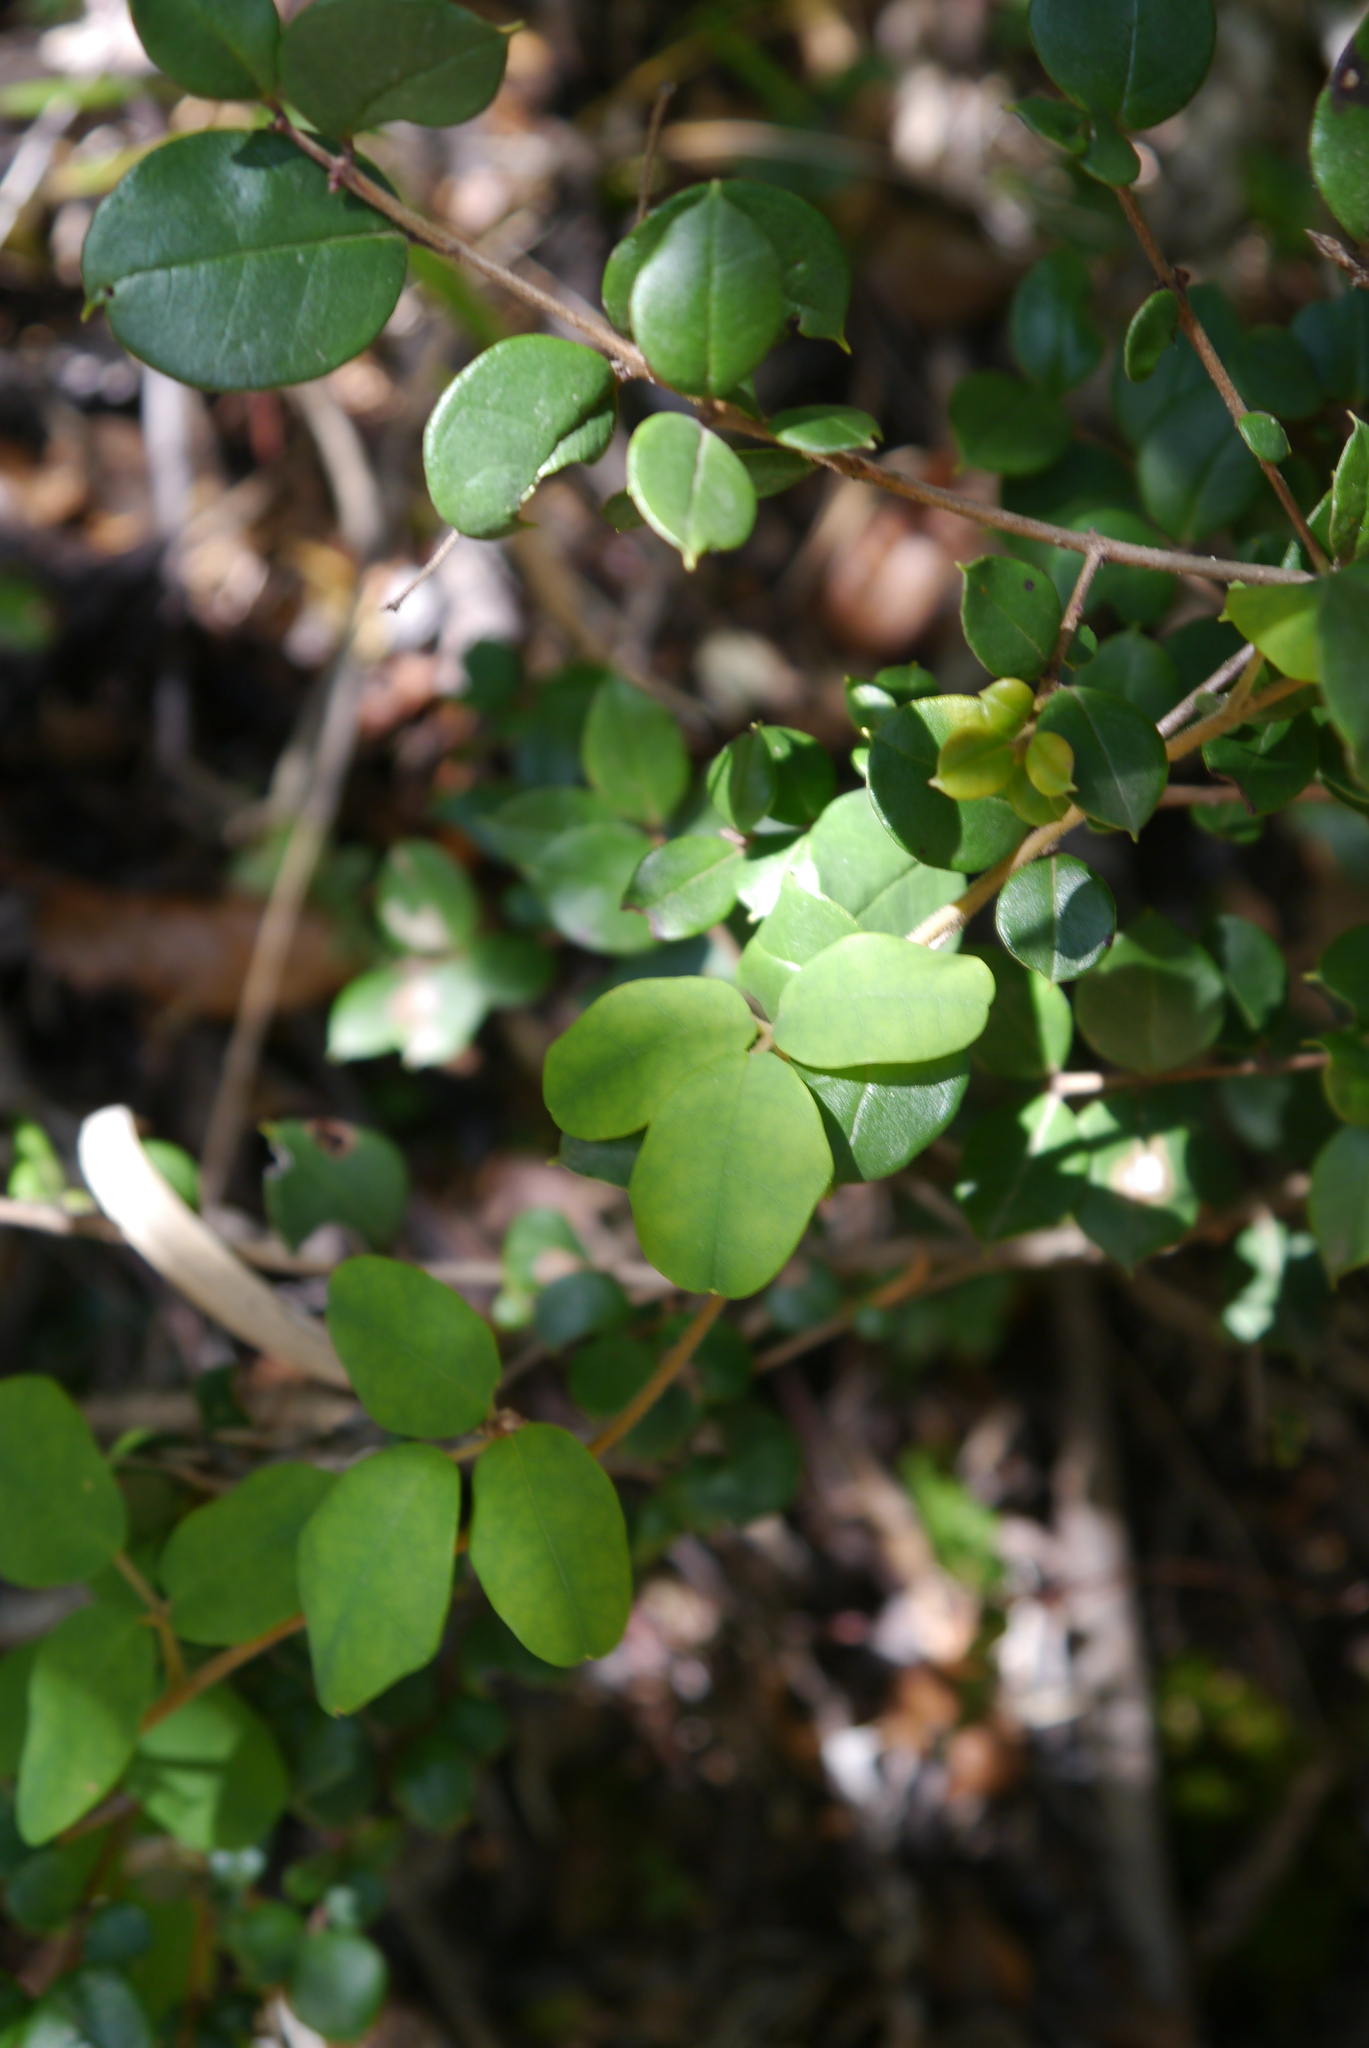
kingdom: Plantae
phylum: Tracheophyta
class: Magnoliopsida
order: Ranunculales
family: Lardizabalaceae
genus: Boquila
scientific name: Boquila trifoliolata
